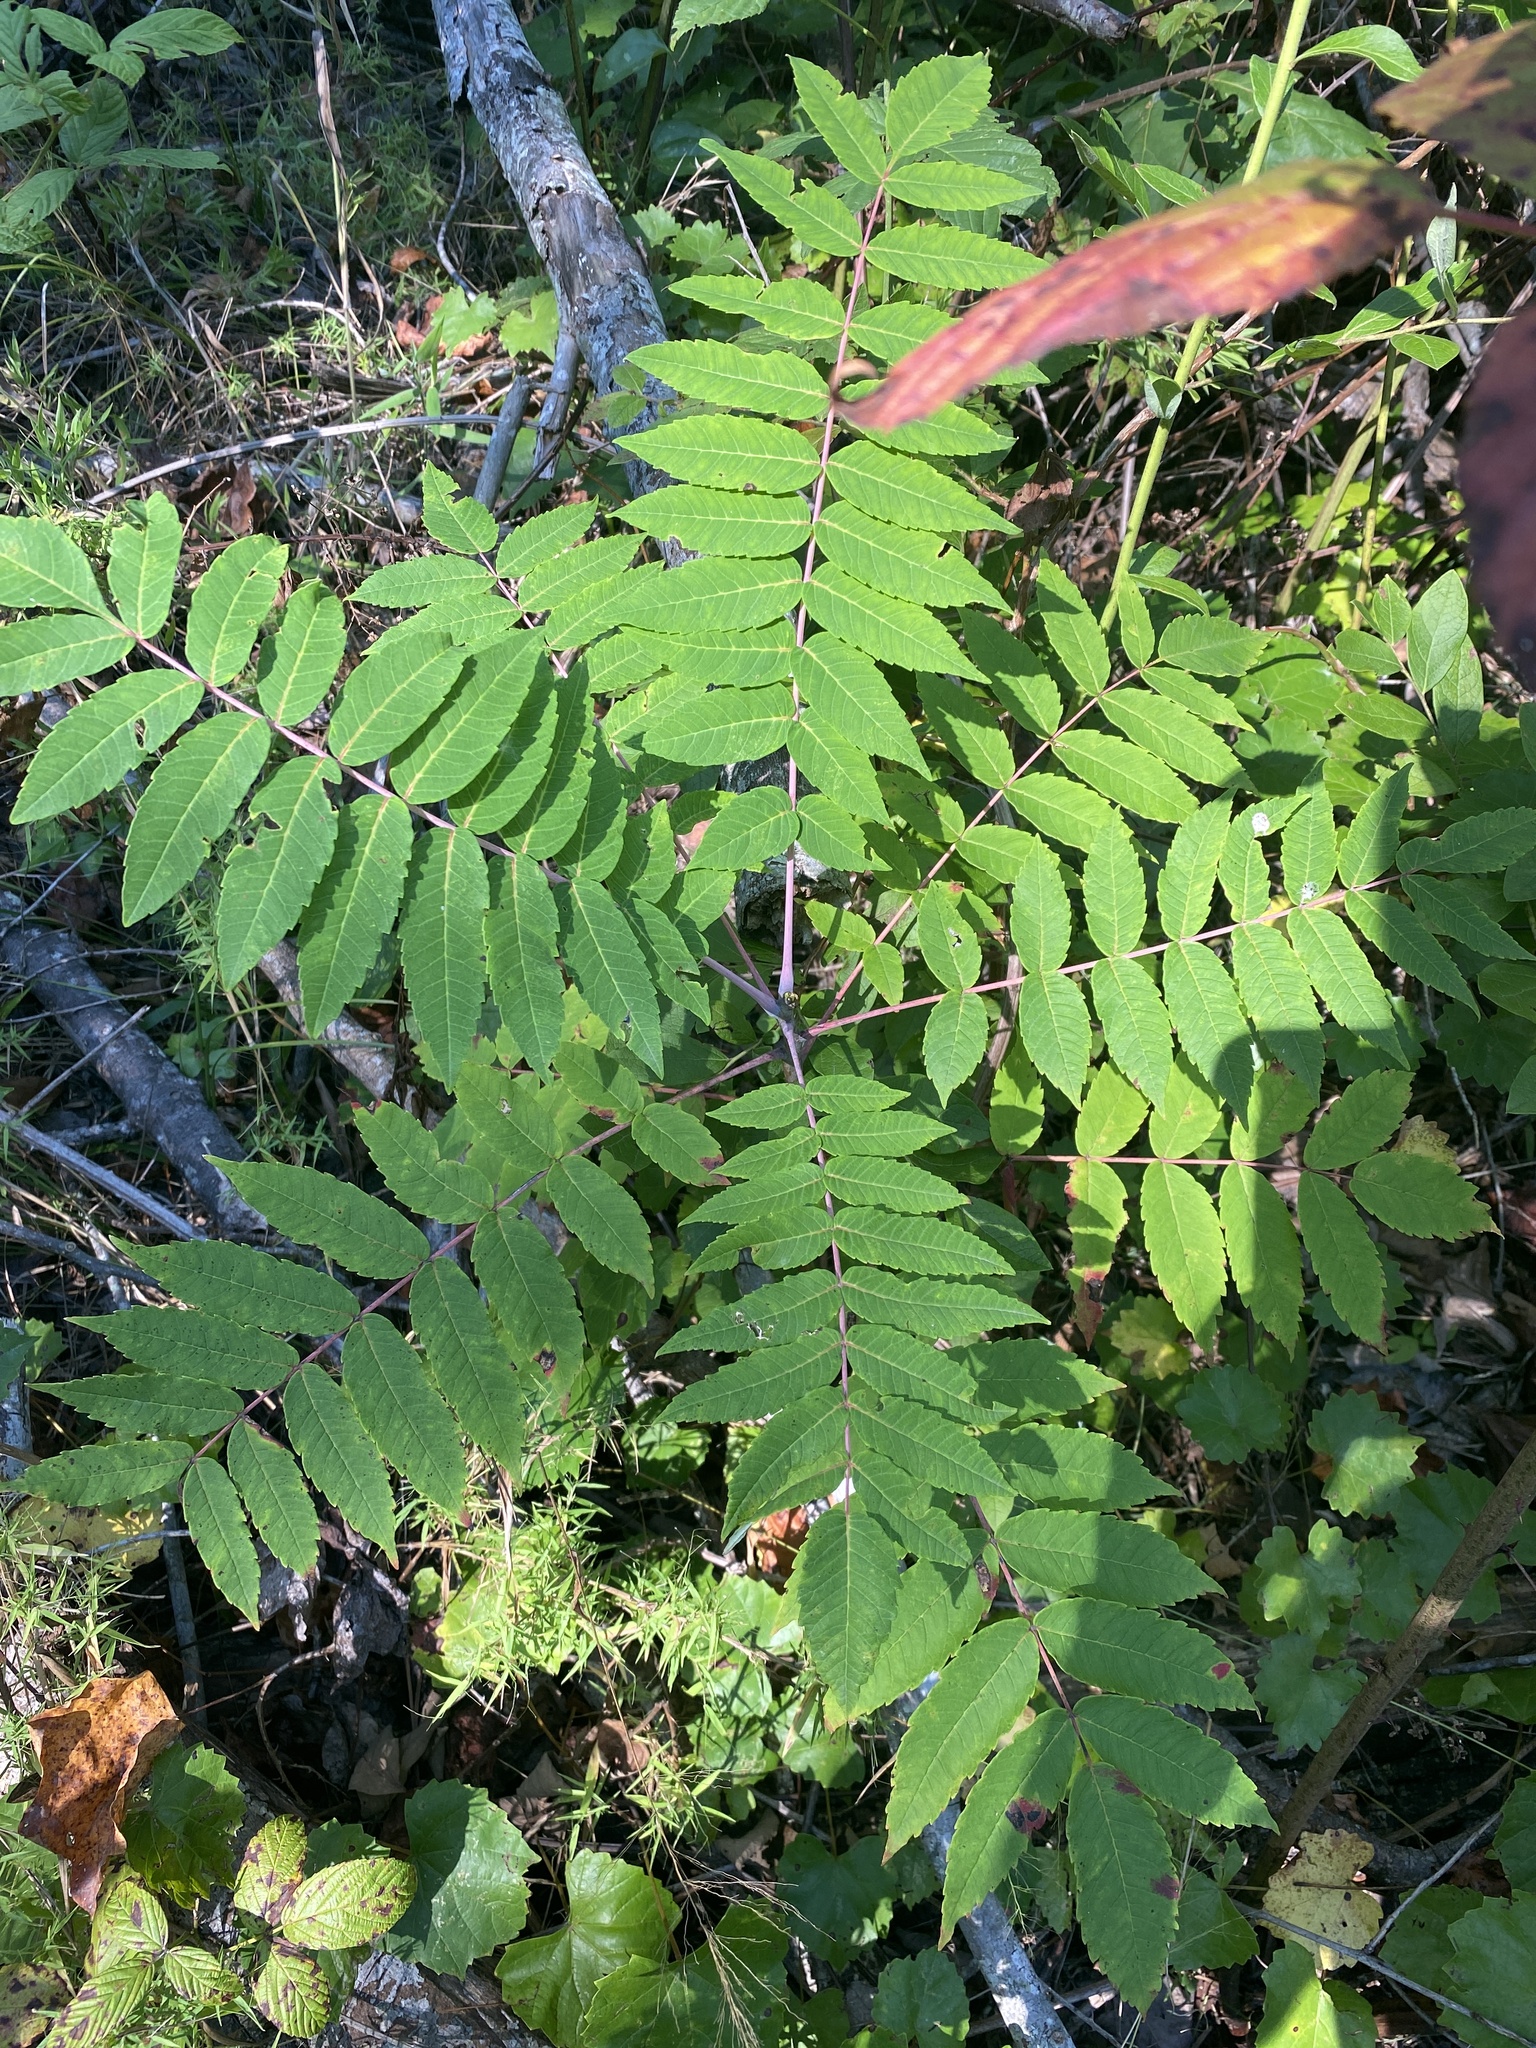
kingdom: Plantae
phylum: Tracheophyta
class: Magnoliopsida
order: Sapindales
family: Anacardiaceae
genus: Rhus
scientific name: Rhus glabra
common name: Scarlet sumac
